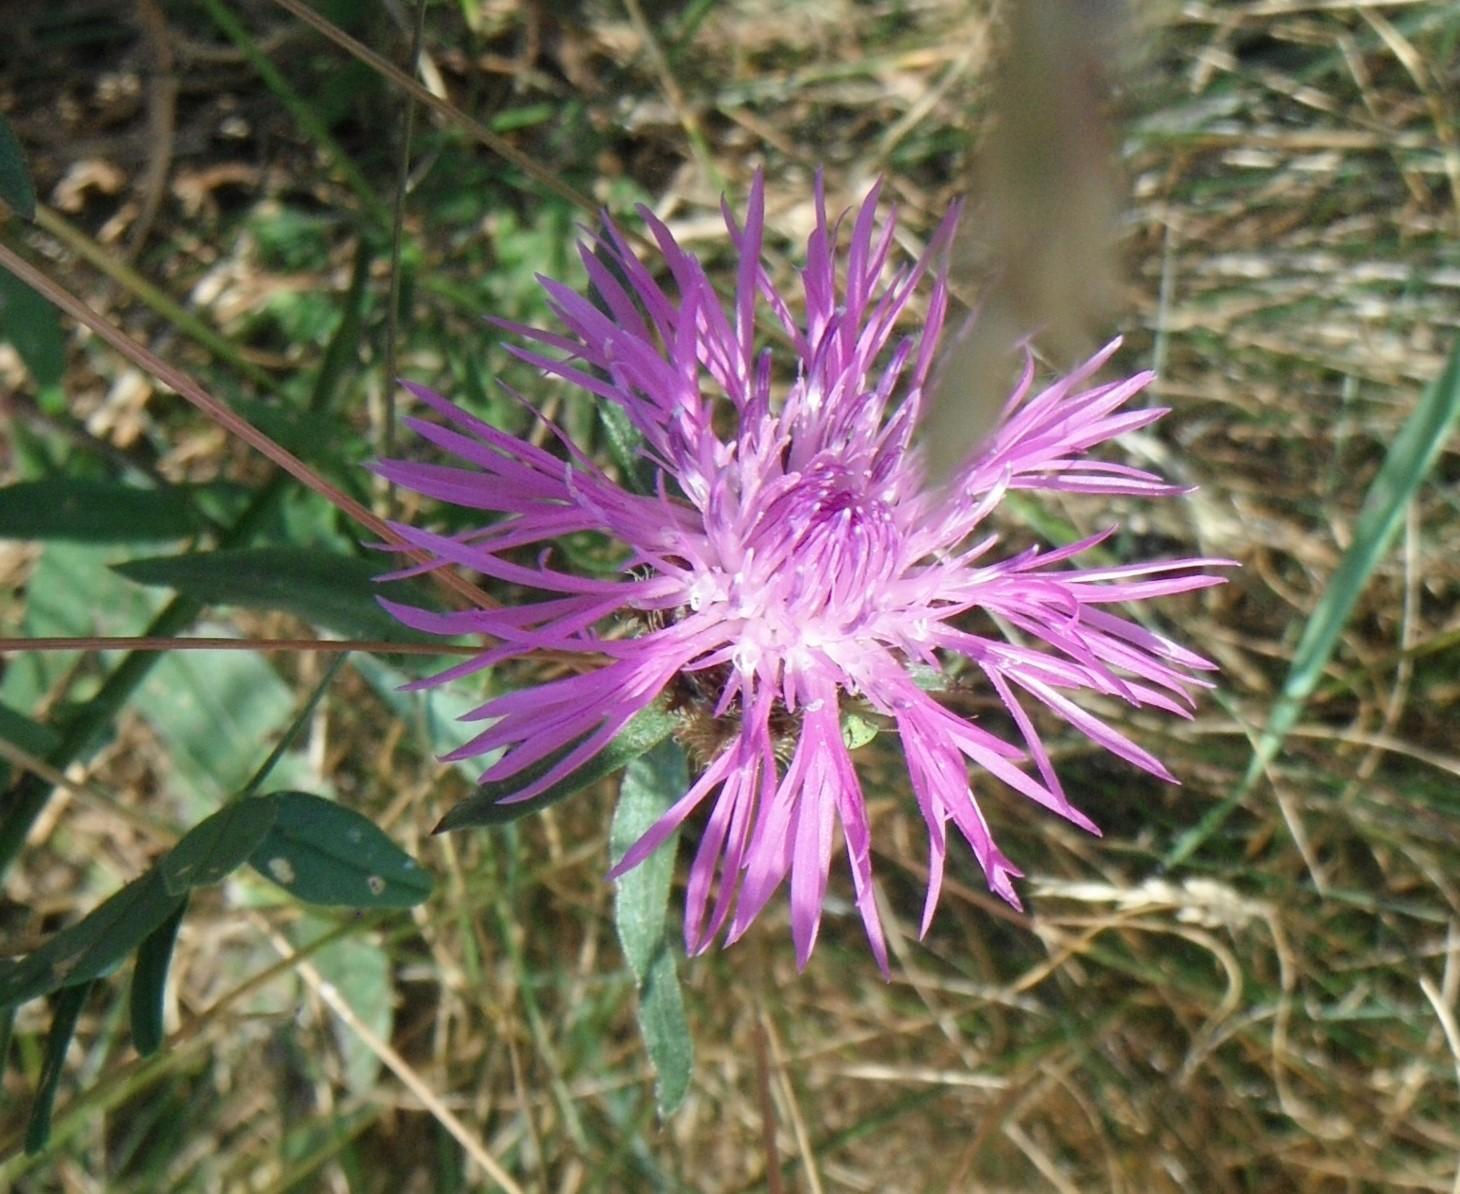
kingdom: Plantae
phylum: Tracheophyta
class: Magnoliopsida
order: Asterales
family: Asteraceae
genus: Centaurea
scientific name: Centaurea jacea
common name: Brown knapweed
